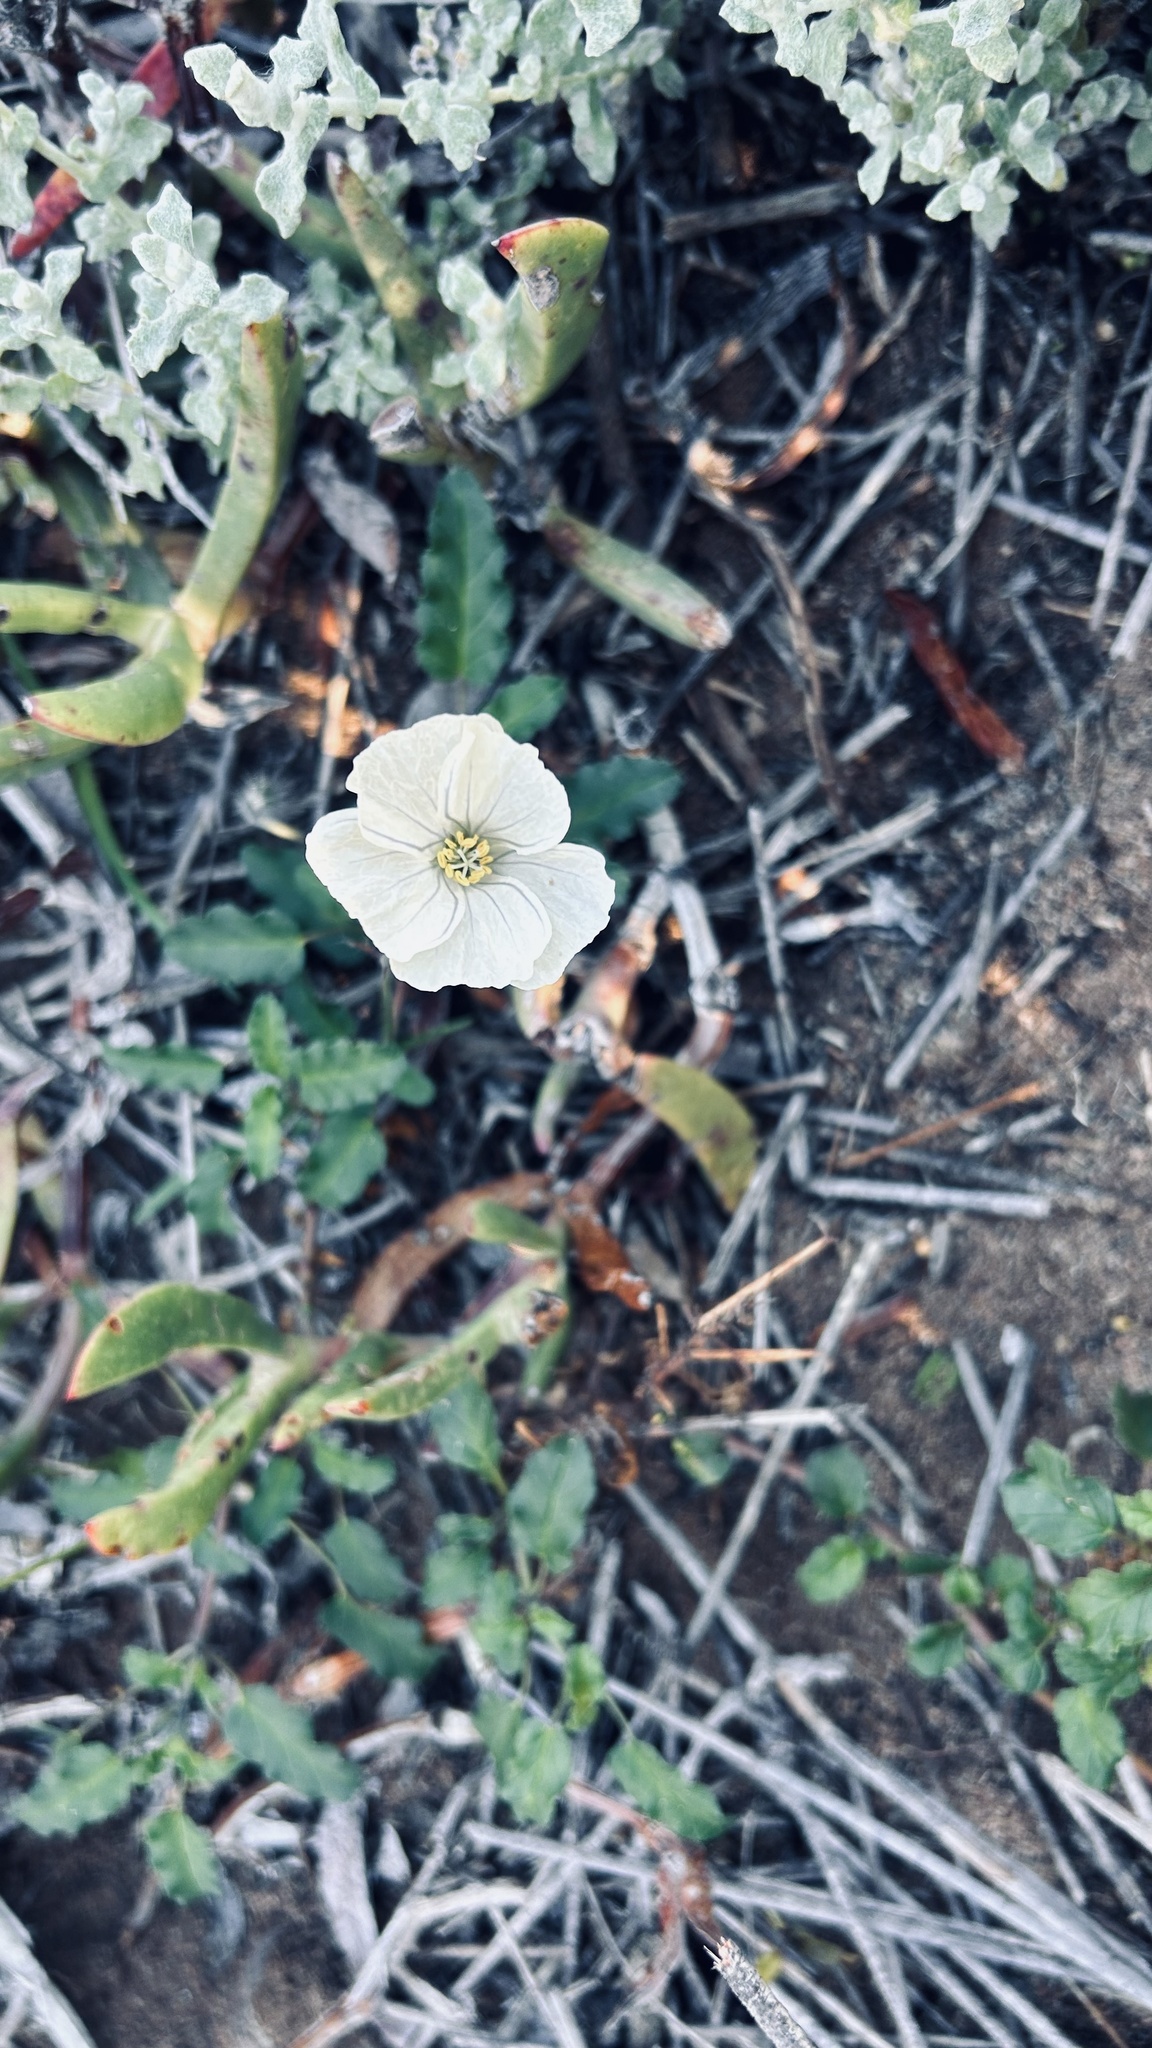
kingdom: Plantae
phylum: Tracheophyta
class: Magnoliopsida
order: Geraniales
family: Geraniaceae
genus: Monsonia
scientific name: Monsonia emarginata
